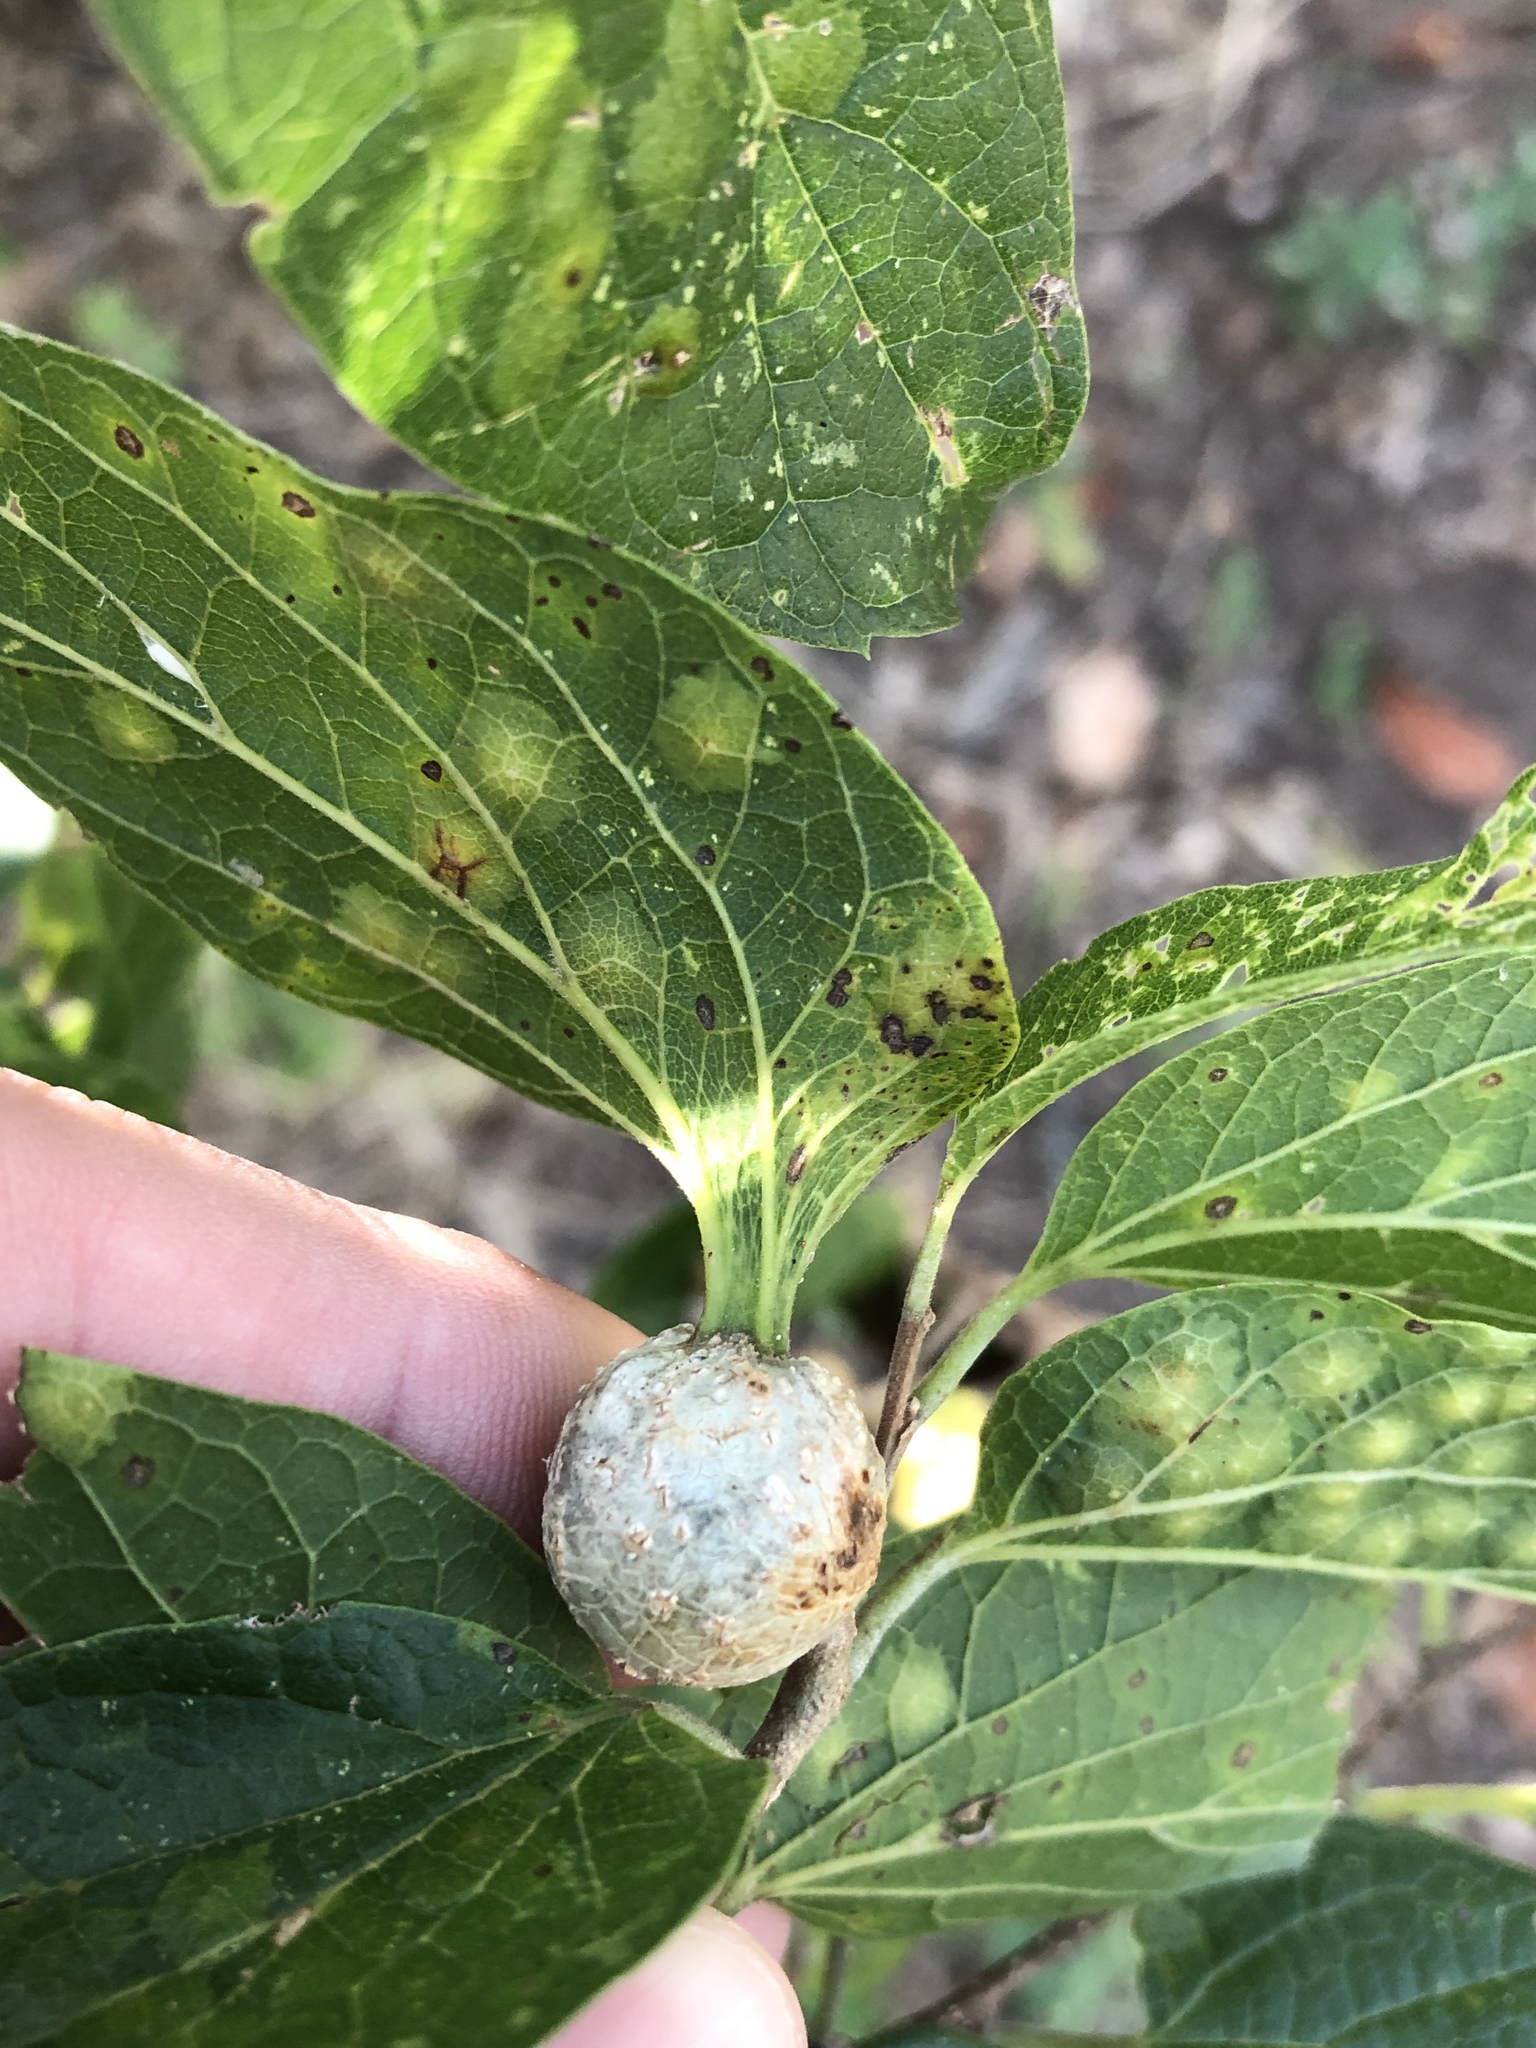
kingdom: Animalia
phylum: Arthropoda
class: Insecta
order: Hemiptera
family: Aphalaridae
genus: Pachypsylla
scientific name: Pachypsylla venusta
